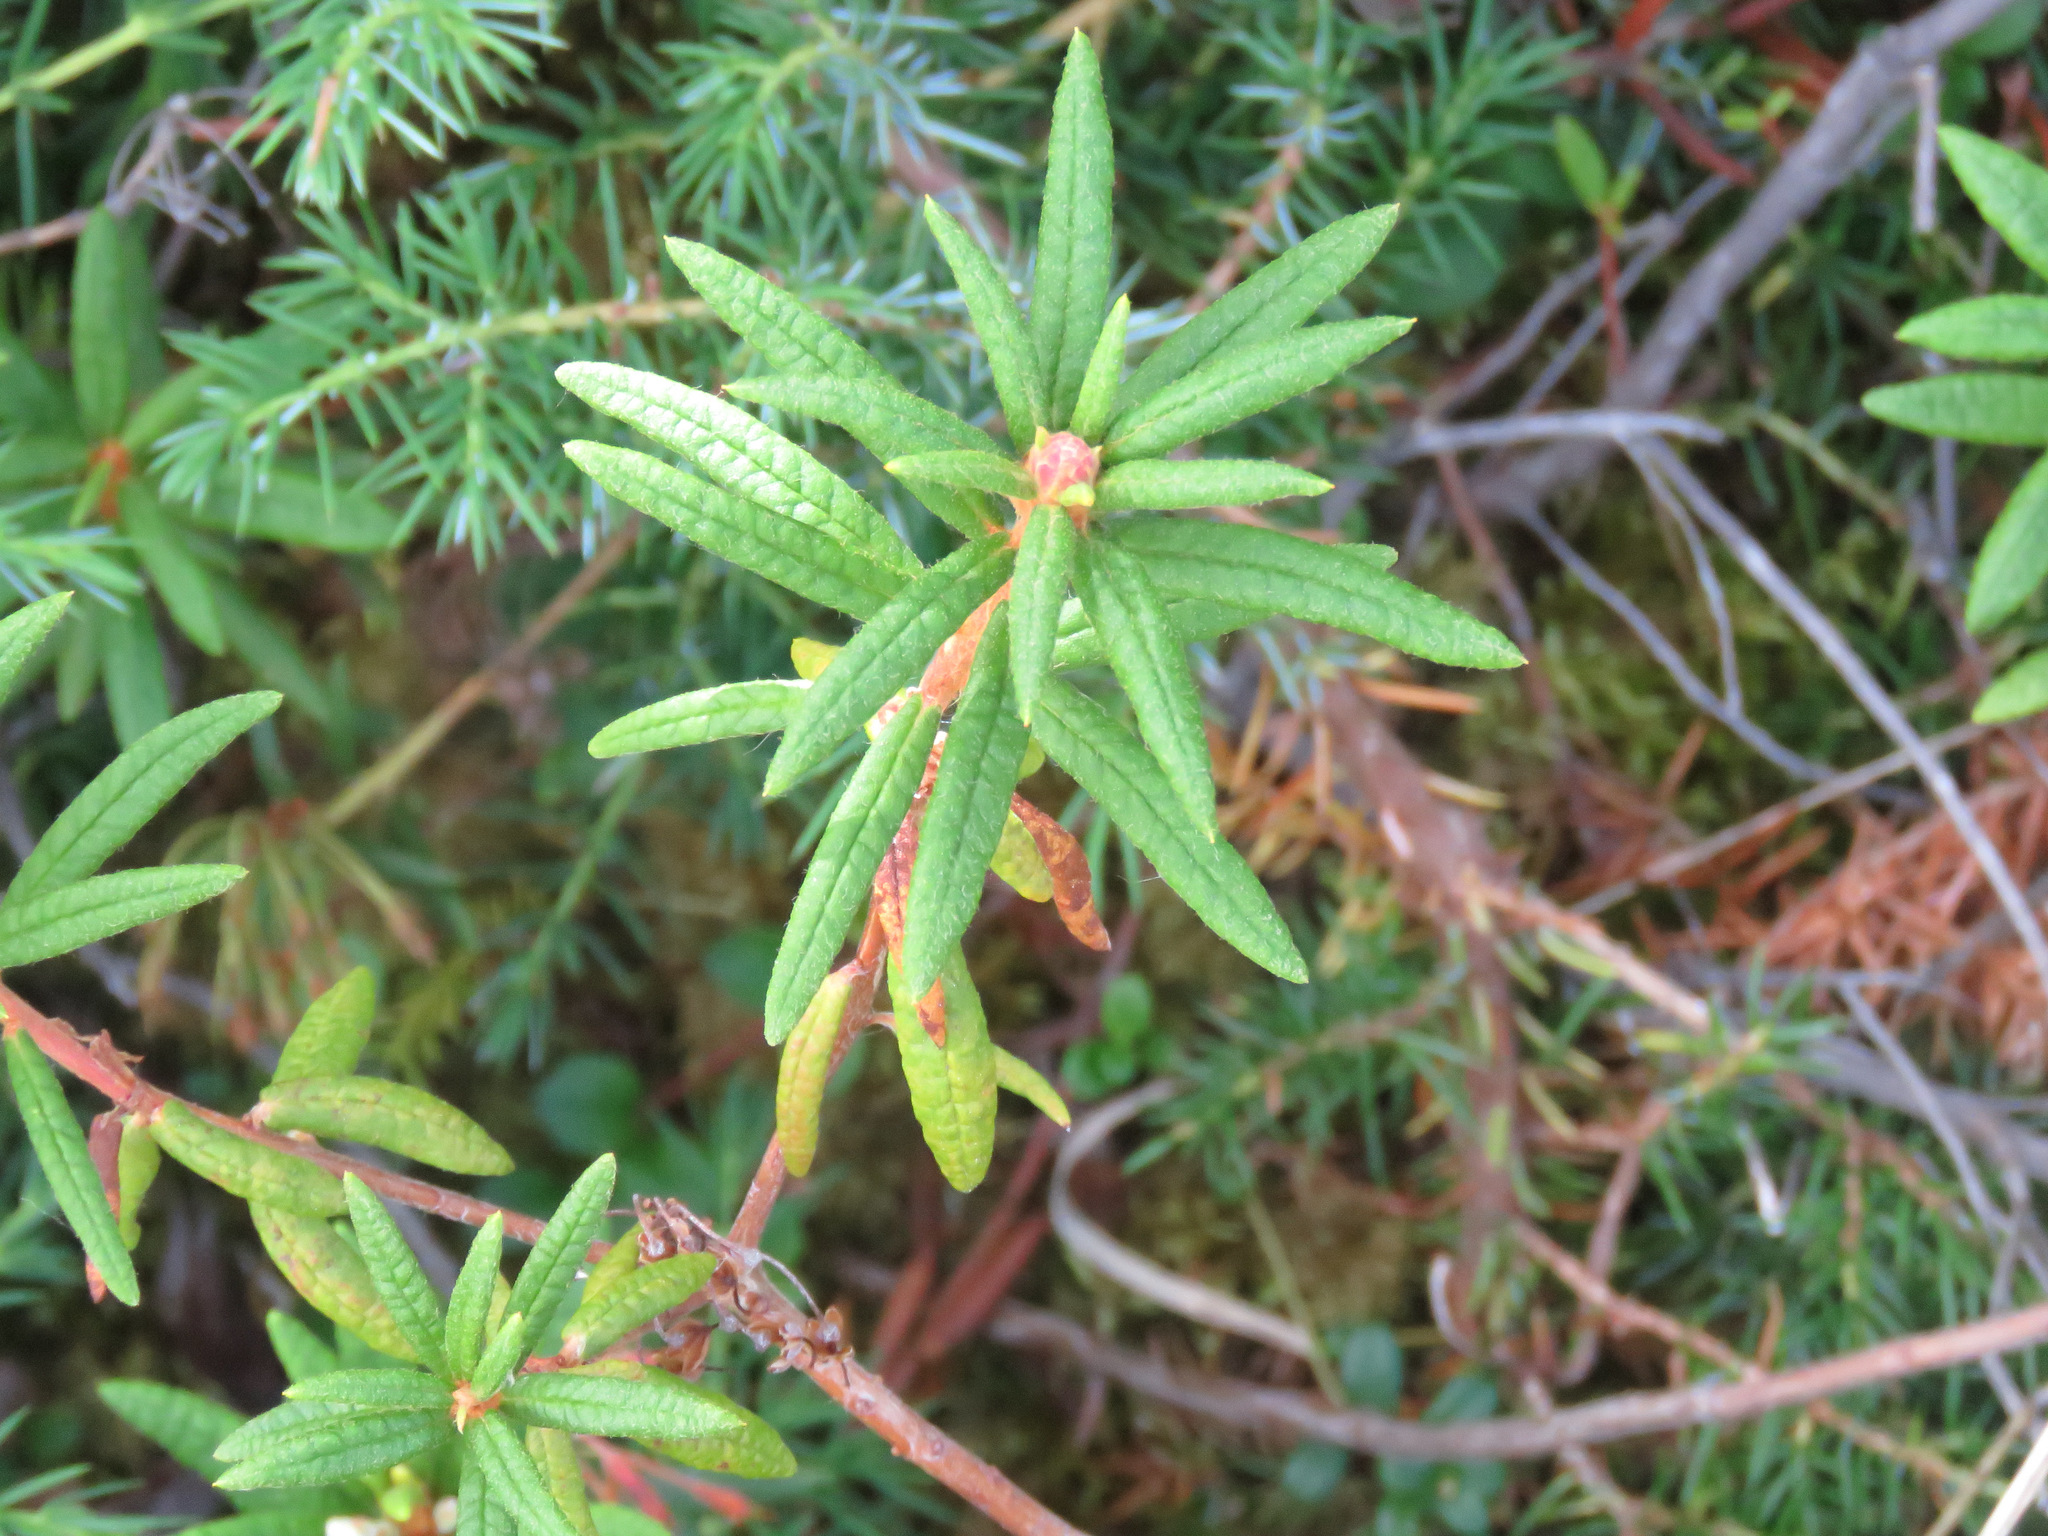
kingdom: Plantae
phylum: Tracheophyta
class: Magnoliopsida
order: Ericales
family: Ericaceae
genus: Rhododendron
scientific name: Rhododendron groenlandicum
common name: Bog labrador tea
